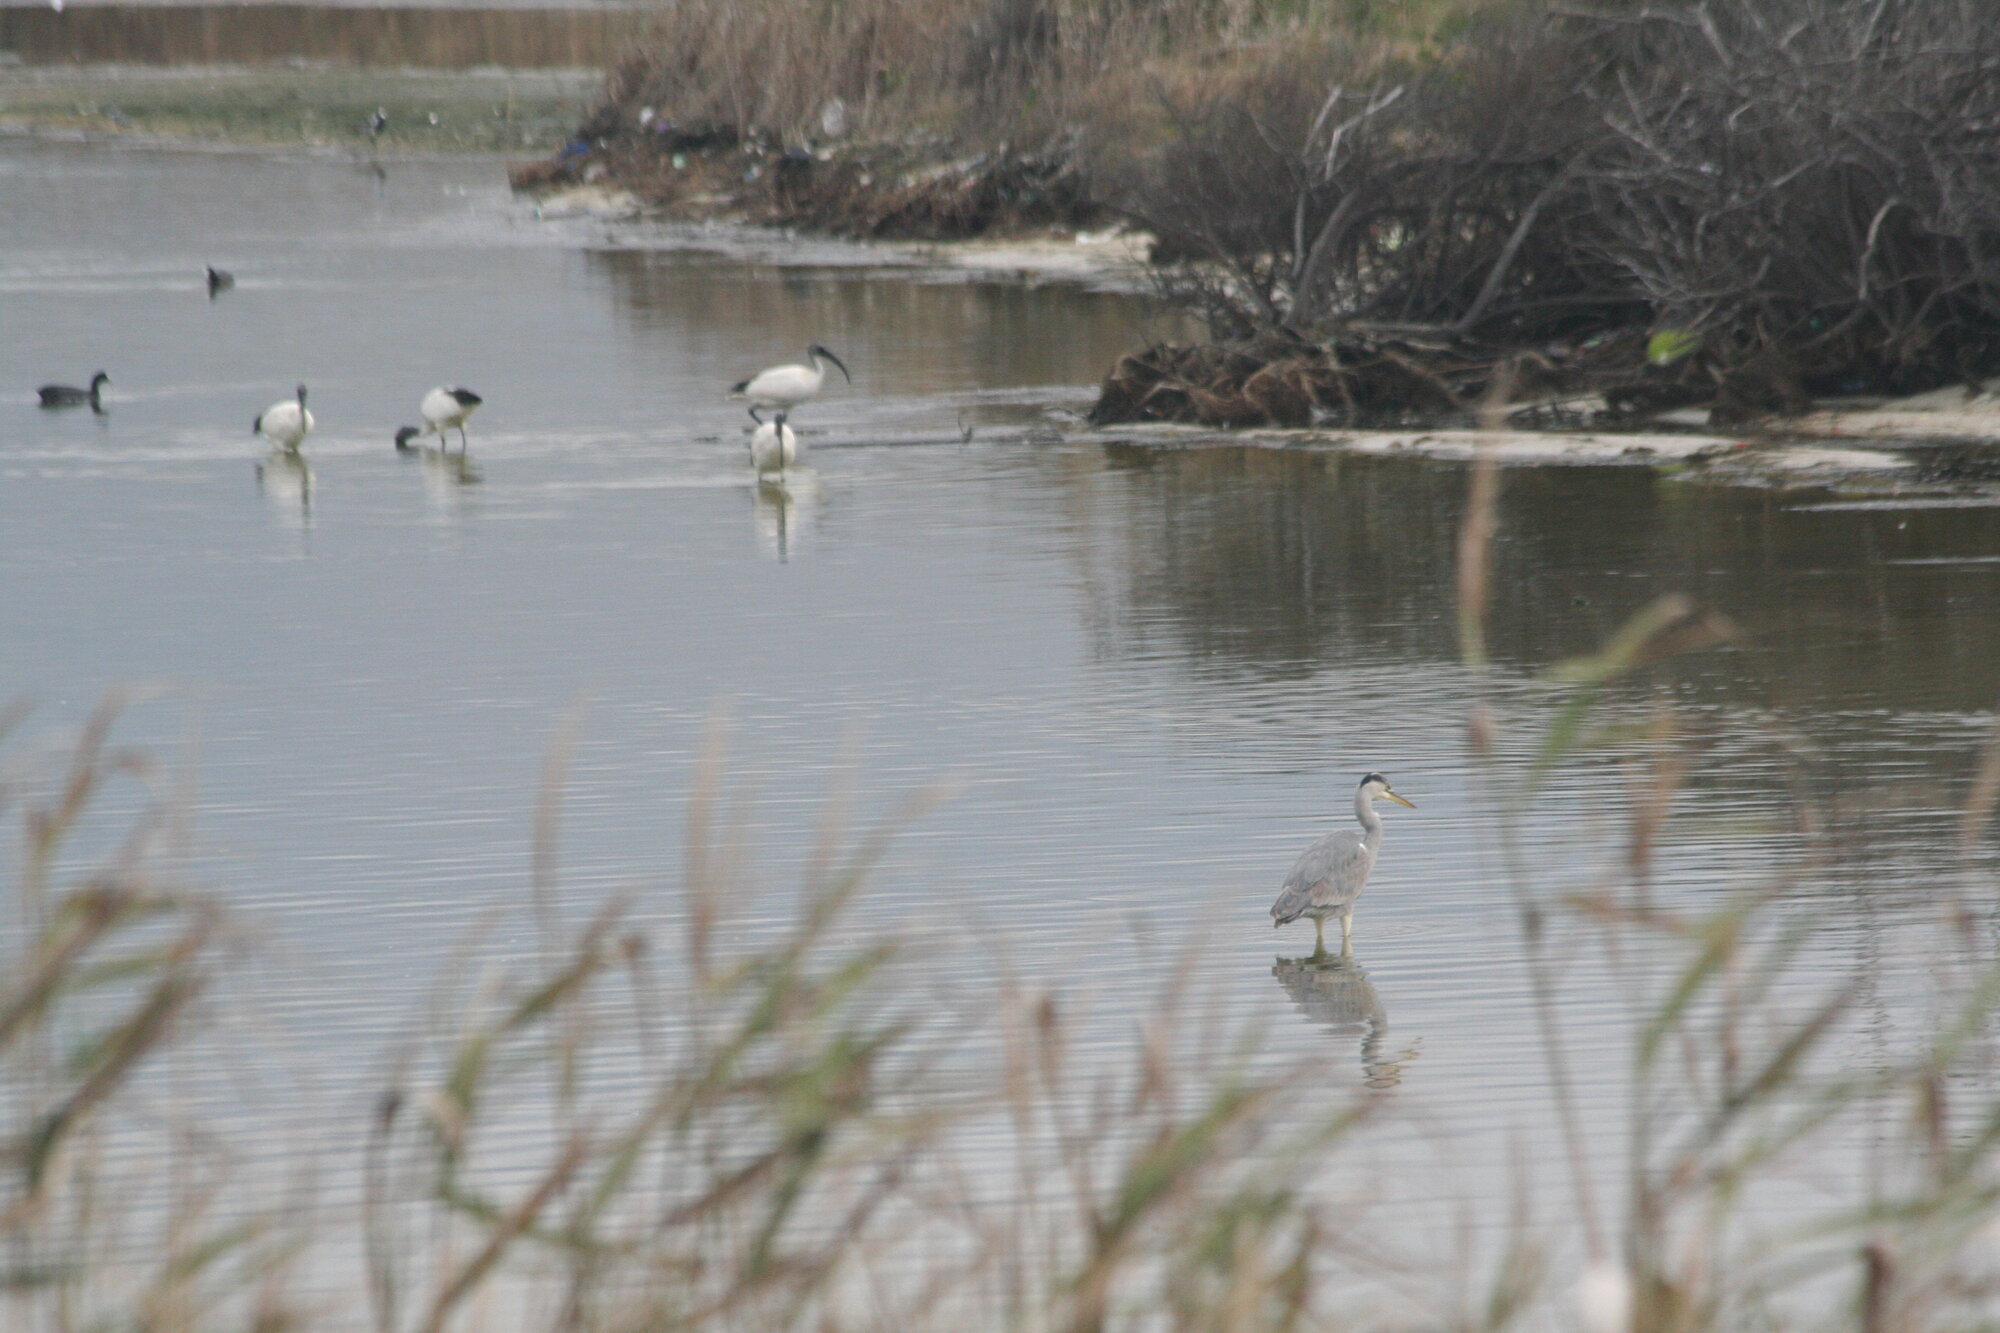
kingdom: Animalia
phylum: Chordata
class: Aves
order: Pelecaniformes
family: Ardeidae
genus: Ardea
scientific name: Ardea cinerea
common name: Grey heron
